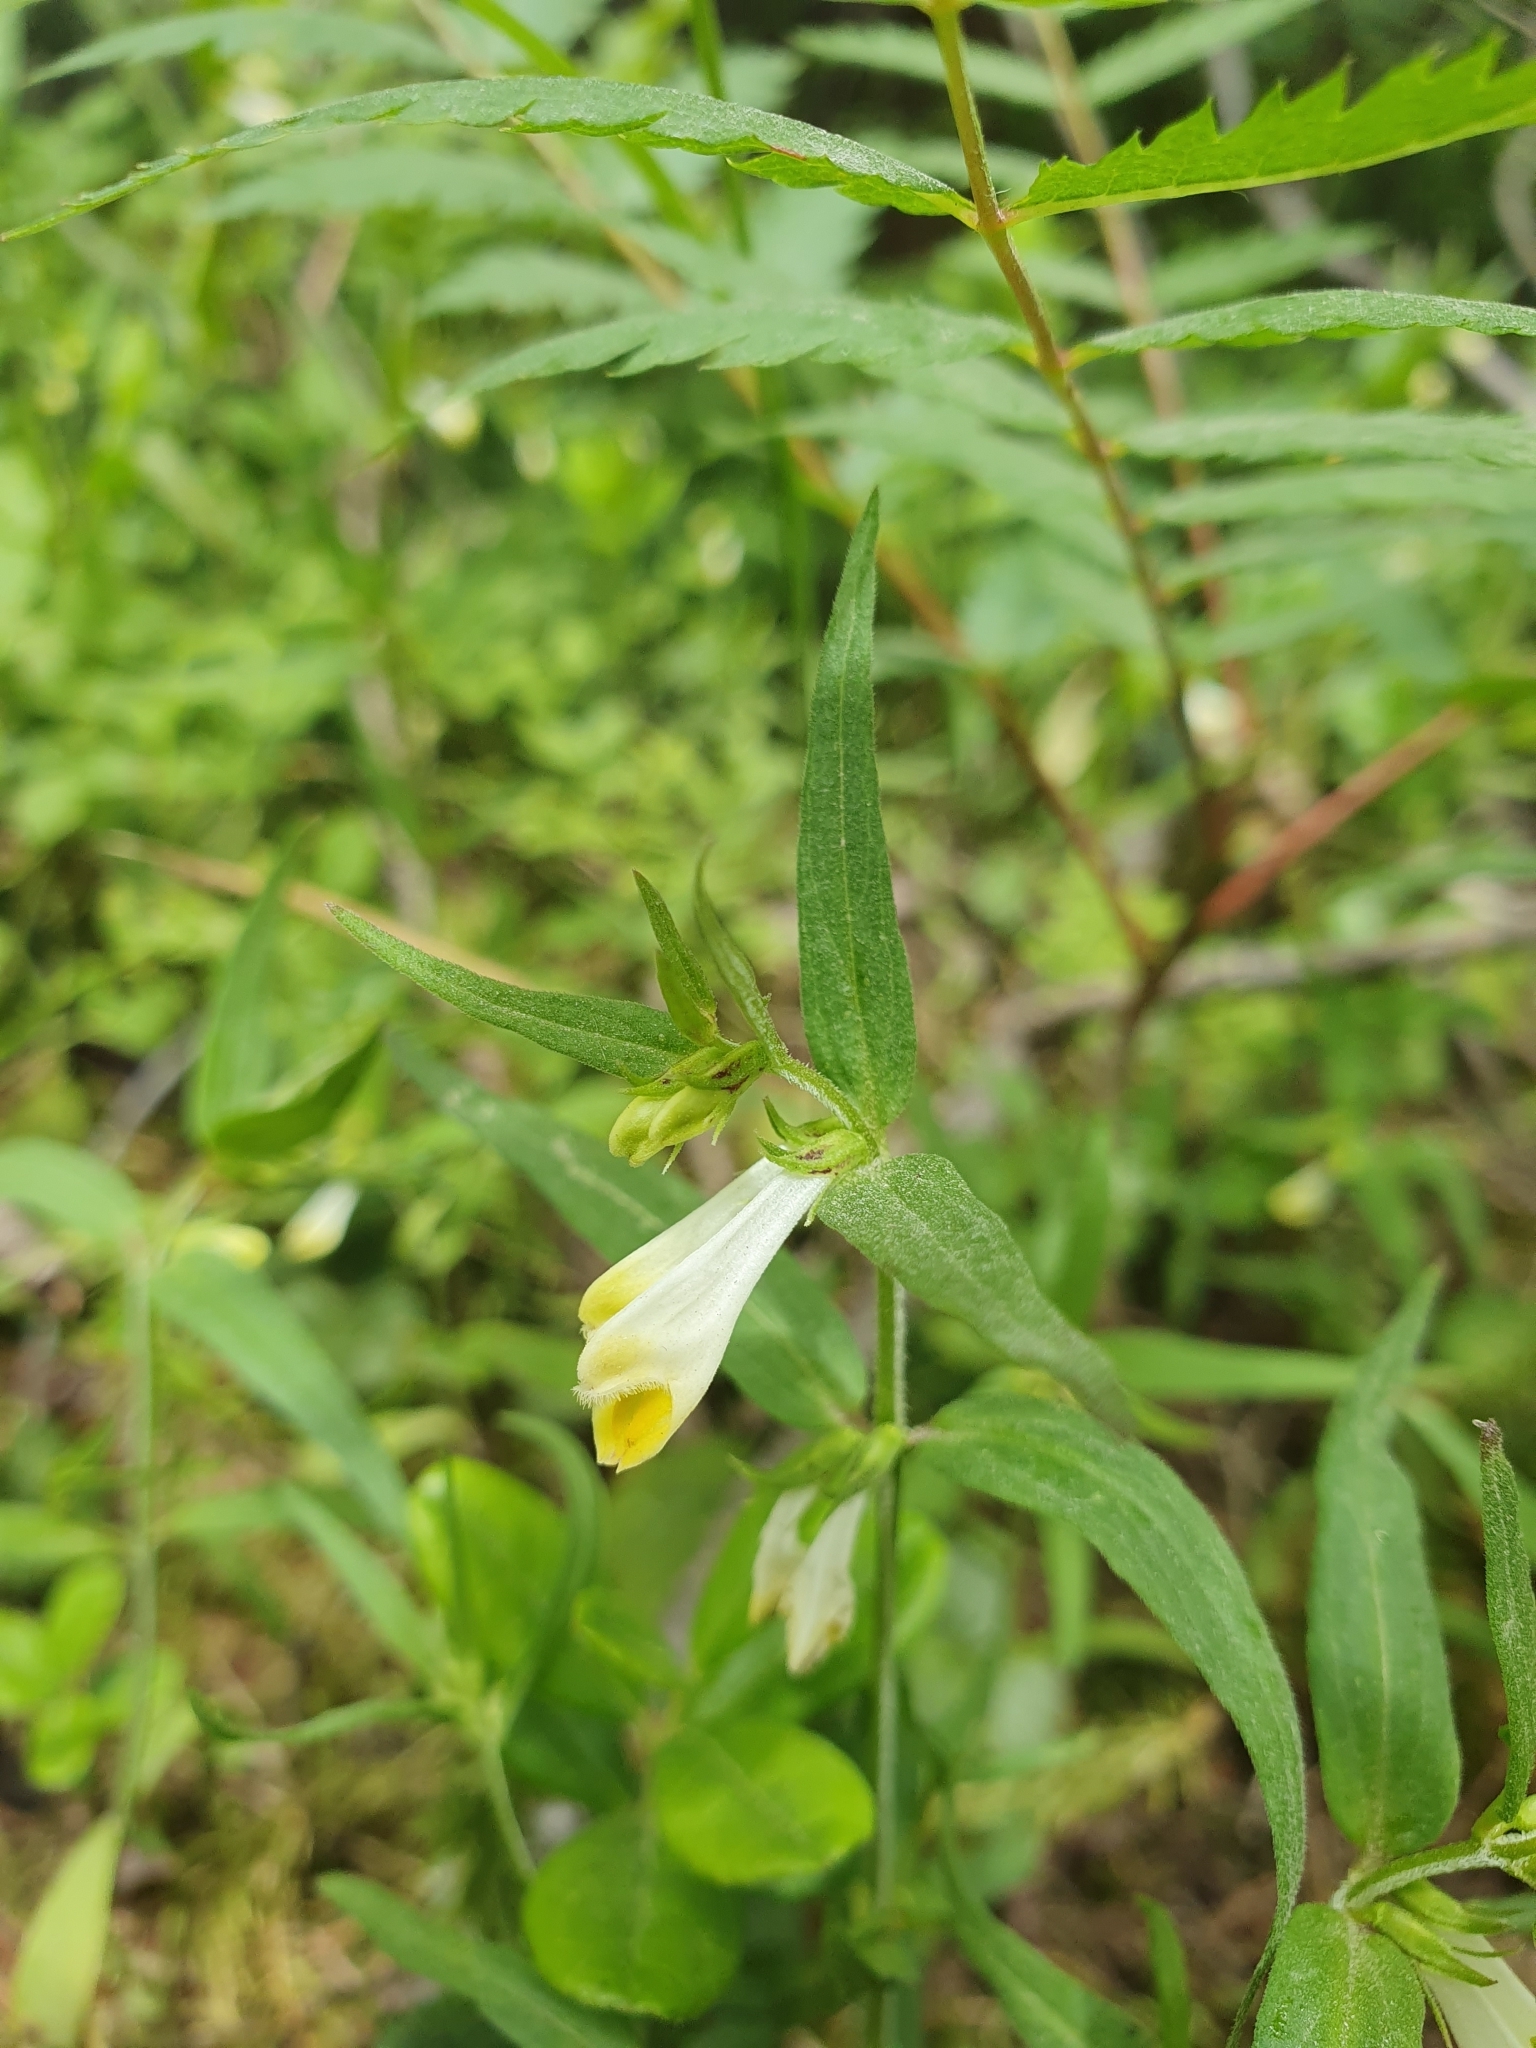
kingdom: Plantae
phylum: Tracheophyta
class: Magnoliopsida
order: Lamiales
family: Orobanchaceae
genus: Melampyrum
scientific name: Melampyrum pratense
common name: Common cow-wheat
